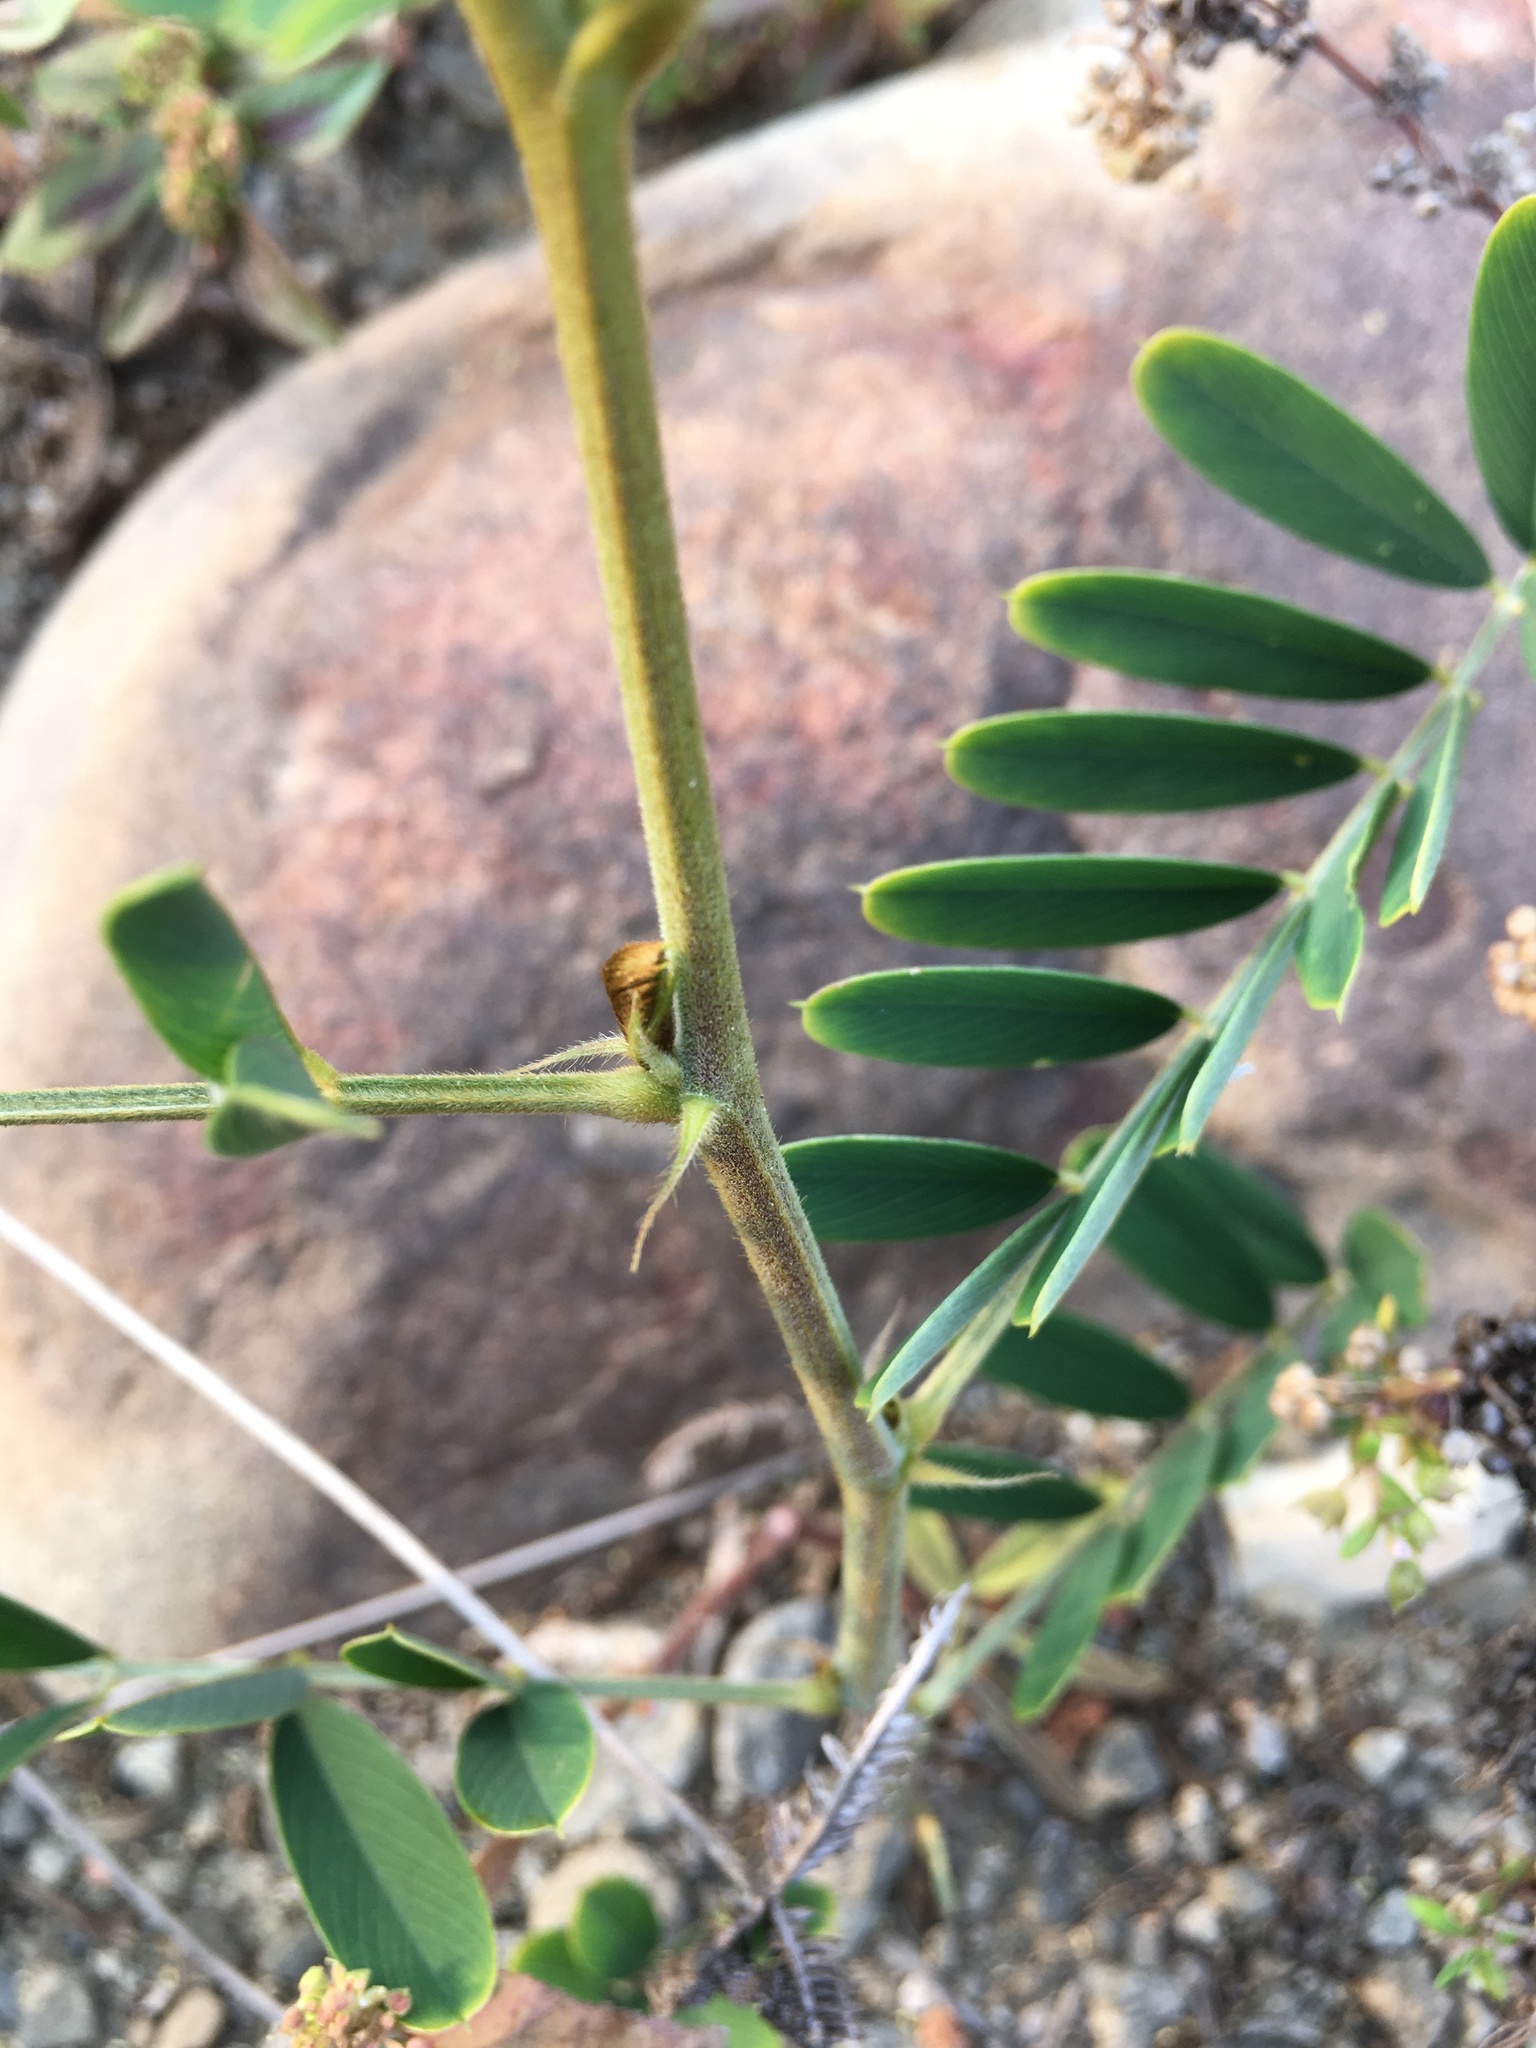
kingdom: Plantae
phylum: Tracheophyta
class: Magnoliopsida
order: Fabales
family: Fabaceae
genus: Tephrosia
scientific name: Tephrosia noctiflora
